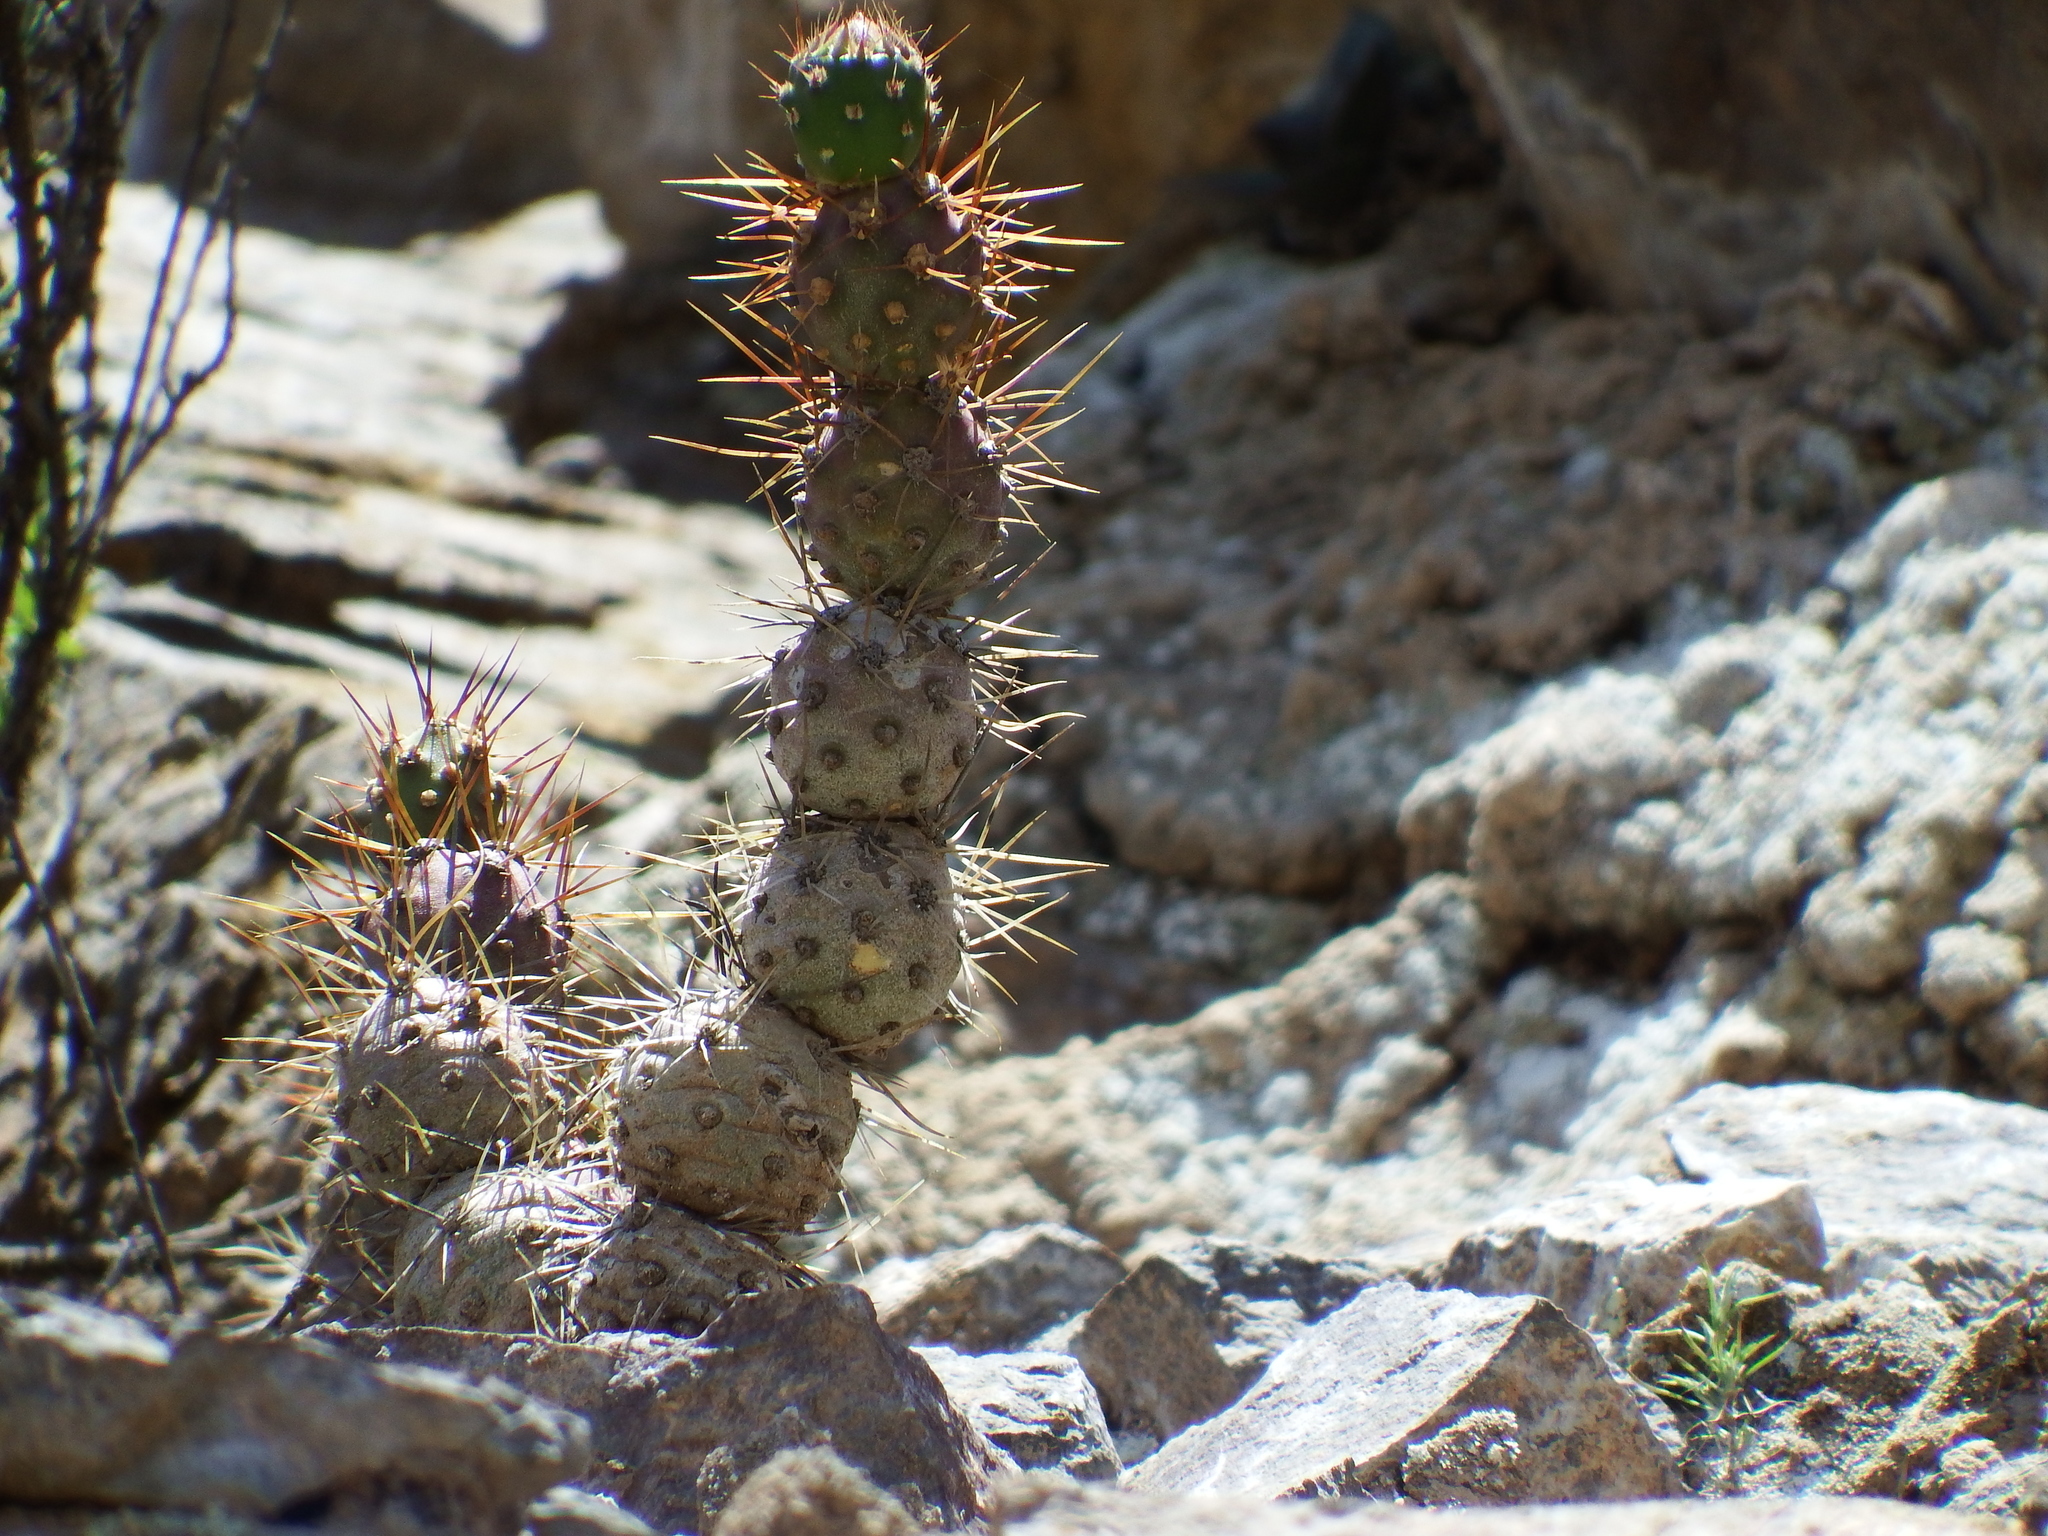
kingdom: Plantae
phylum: Tracheophyta
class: Magnoliopsida
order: Caryophyllales
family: Cactaceae
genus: Cumulopuntia
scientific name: Cumulopuntia leucophaea
